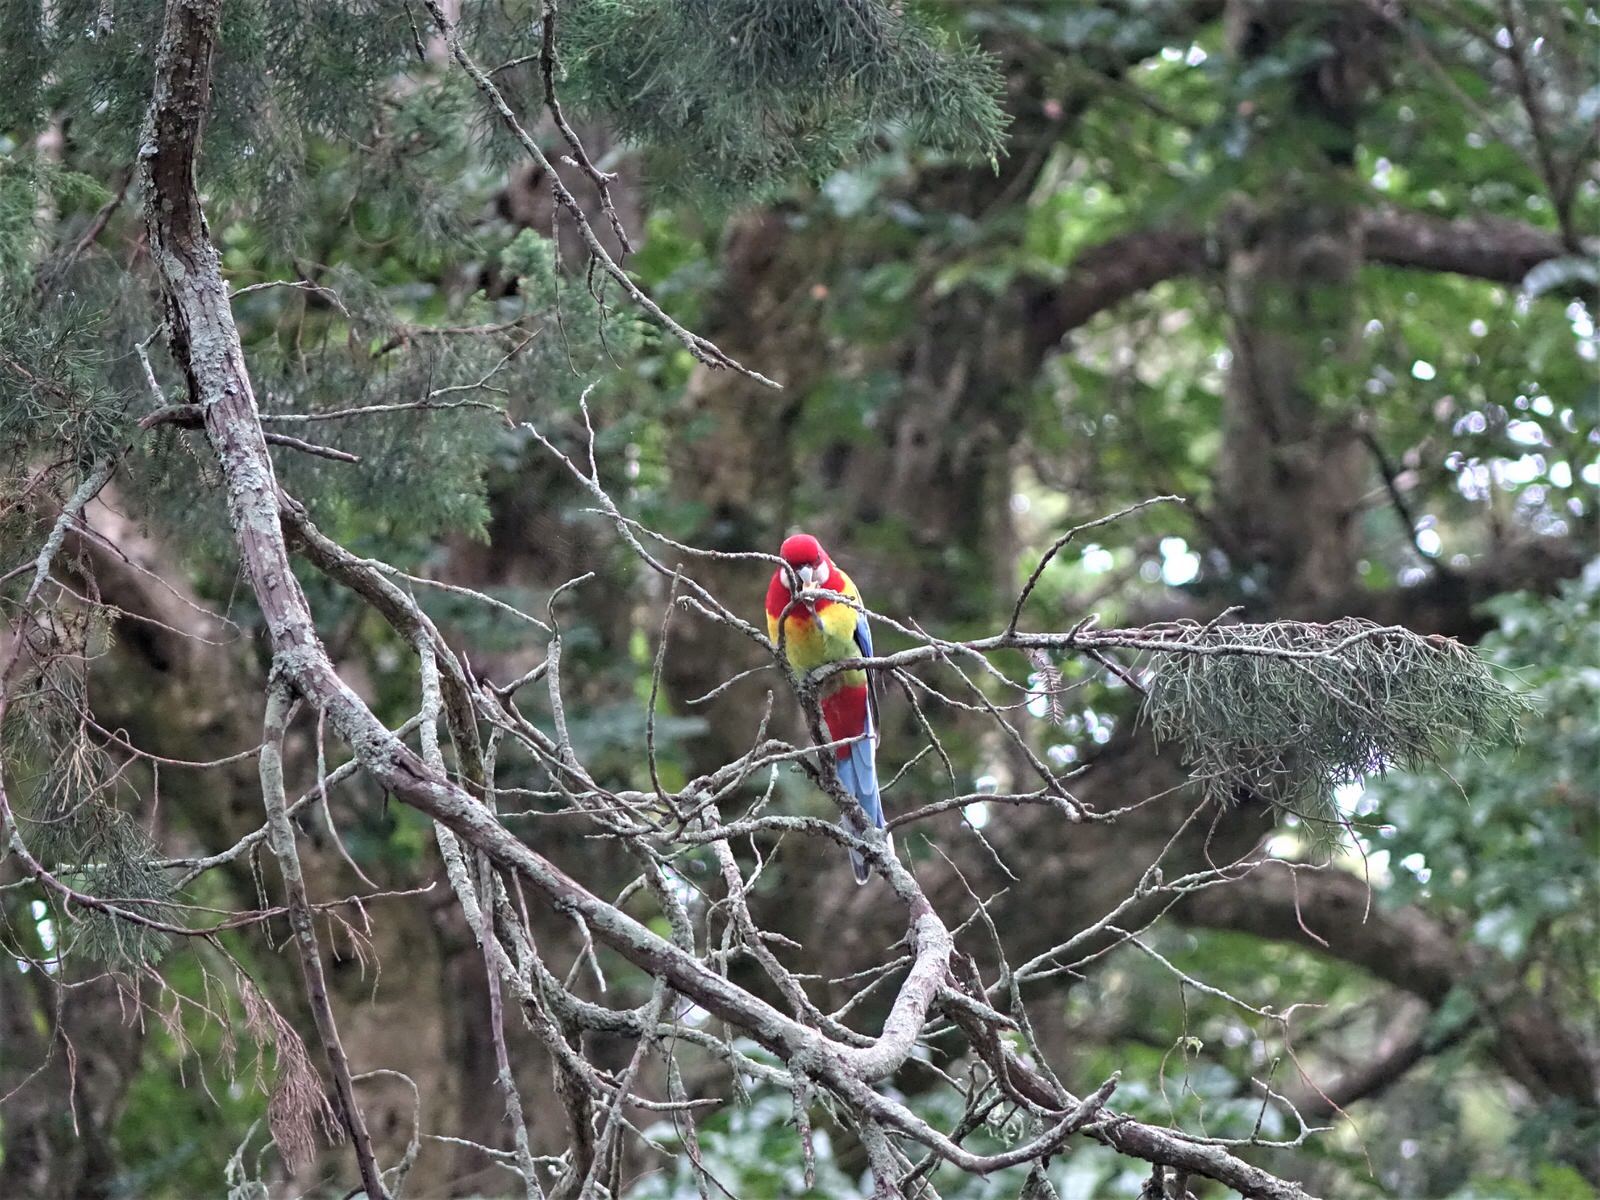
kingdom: Animalia
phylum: Chordata
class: Aves
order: Psittaciformes
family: Psittacidae
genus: Platycercus
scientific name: Platycercus eximius
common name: Eastern rosella
